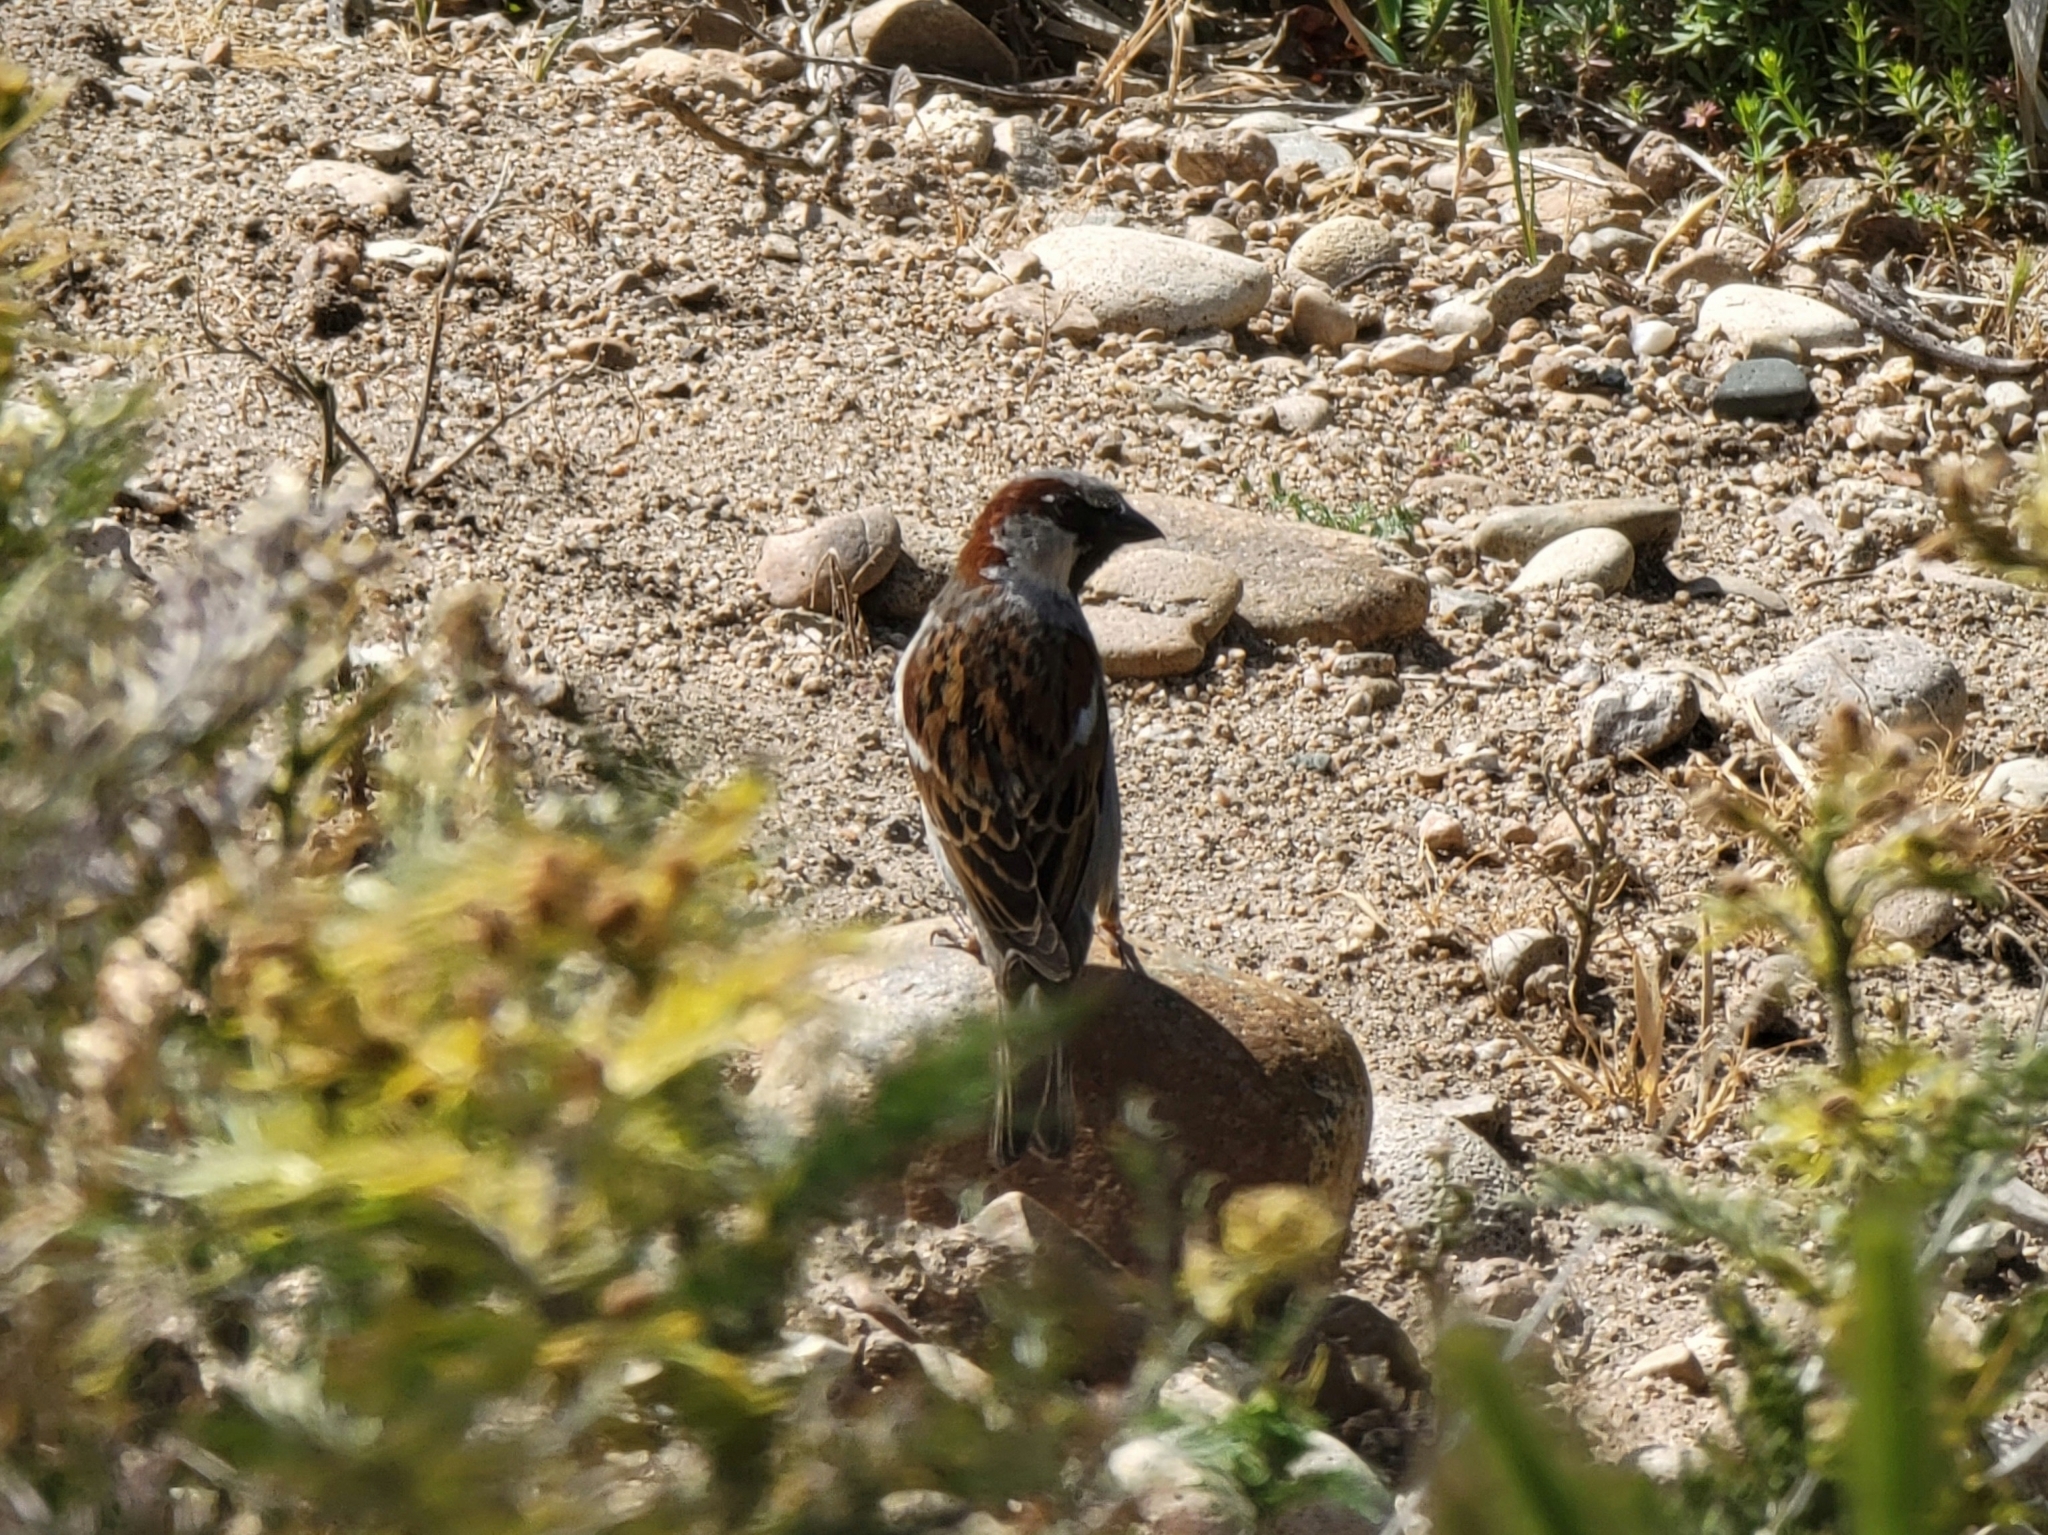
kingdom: Animalia
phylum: Chordata
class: Aves
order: Passeriformes
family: Passeridae
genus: Passer
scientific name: Passer domesticus
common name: House sparrow
